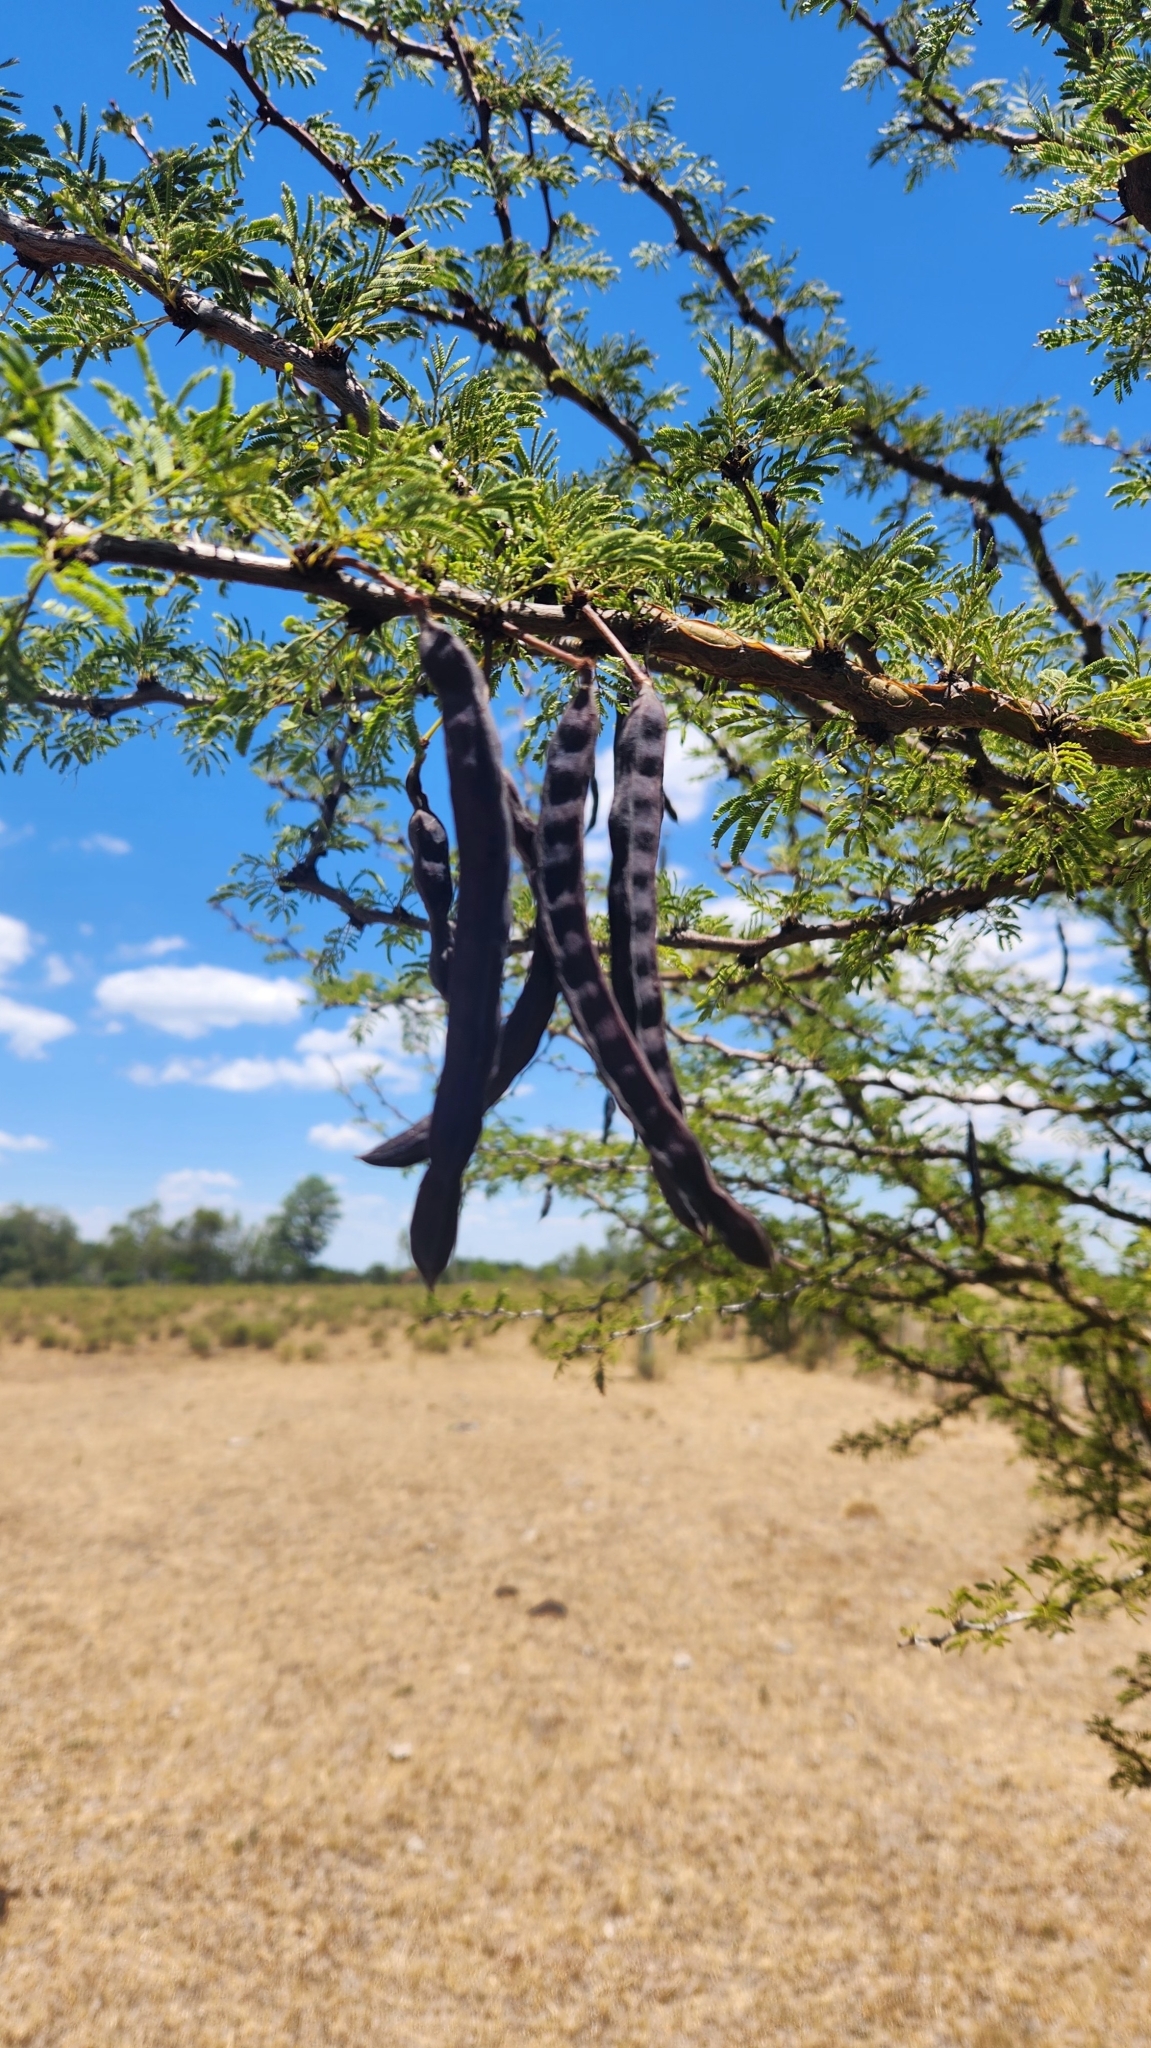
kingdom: Plantae
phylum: Tracheophyta
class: Magnoliopsida
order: Fabales
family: Fabaceae
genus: Vachellia
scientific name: Vachellia astringens
